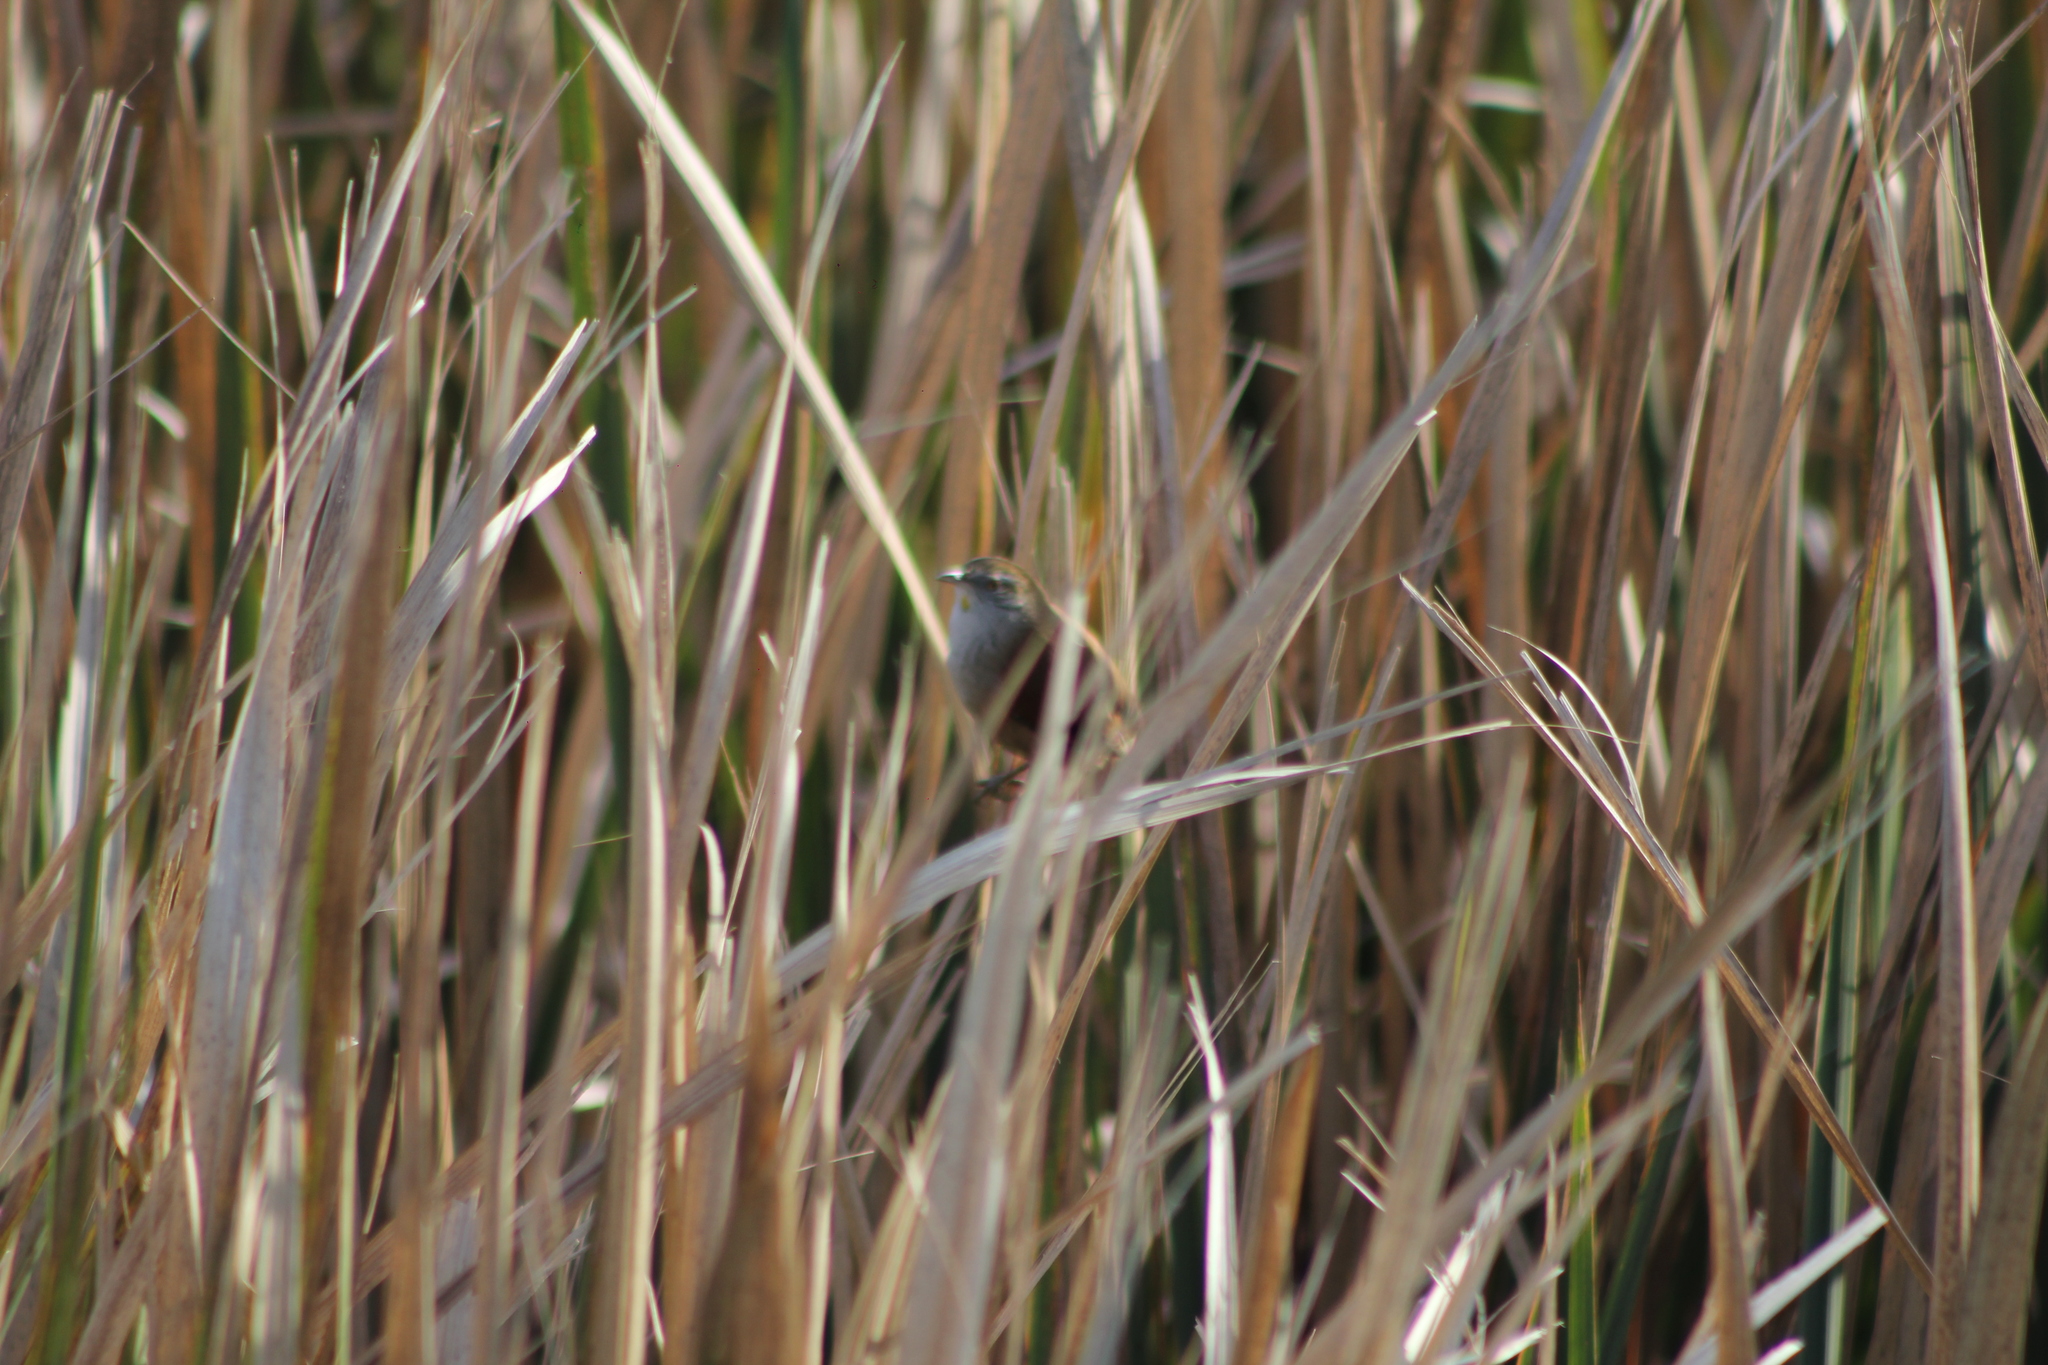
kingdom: Animalia
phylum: Chordata
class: Aves
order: Passeriformes
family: Furnariidae
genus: Cranioleuca
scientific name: Cranioleuca sulphurifera
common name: Sulphur-bearded spinetail
